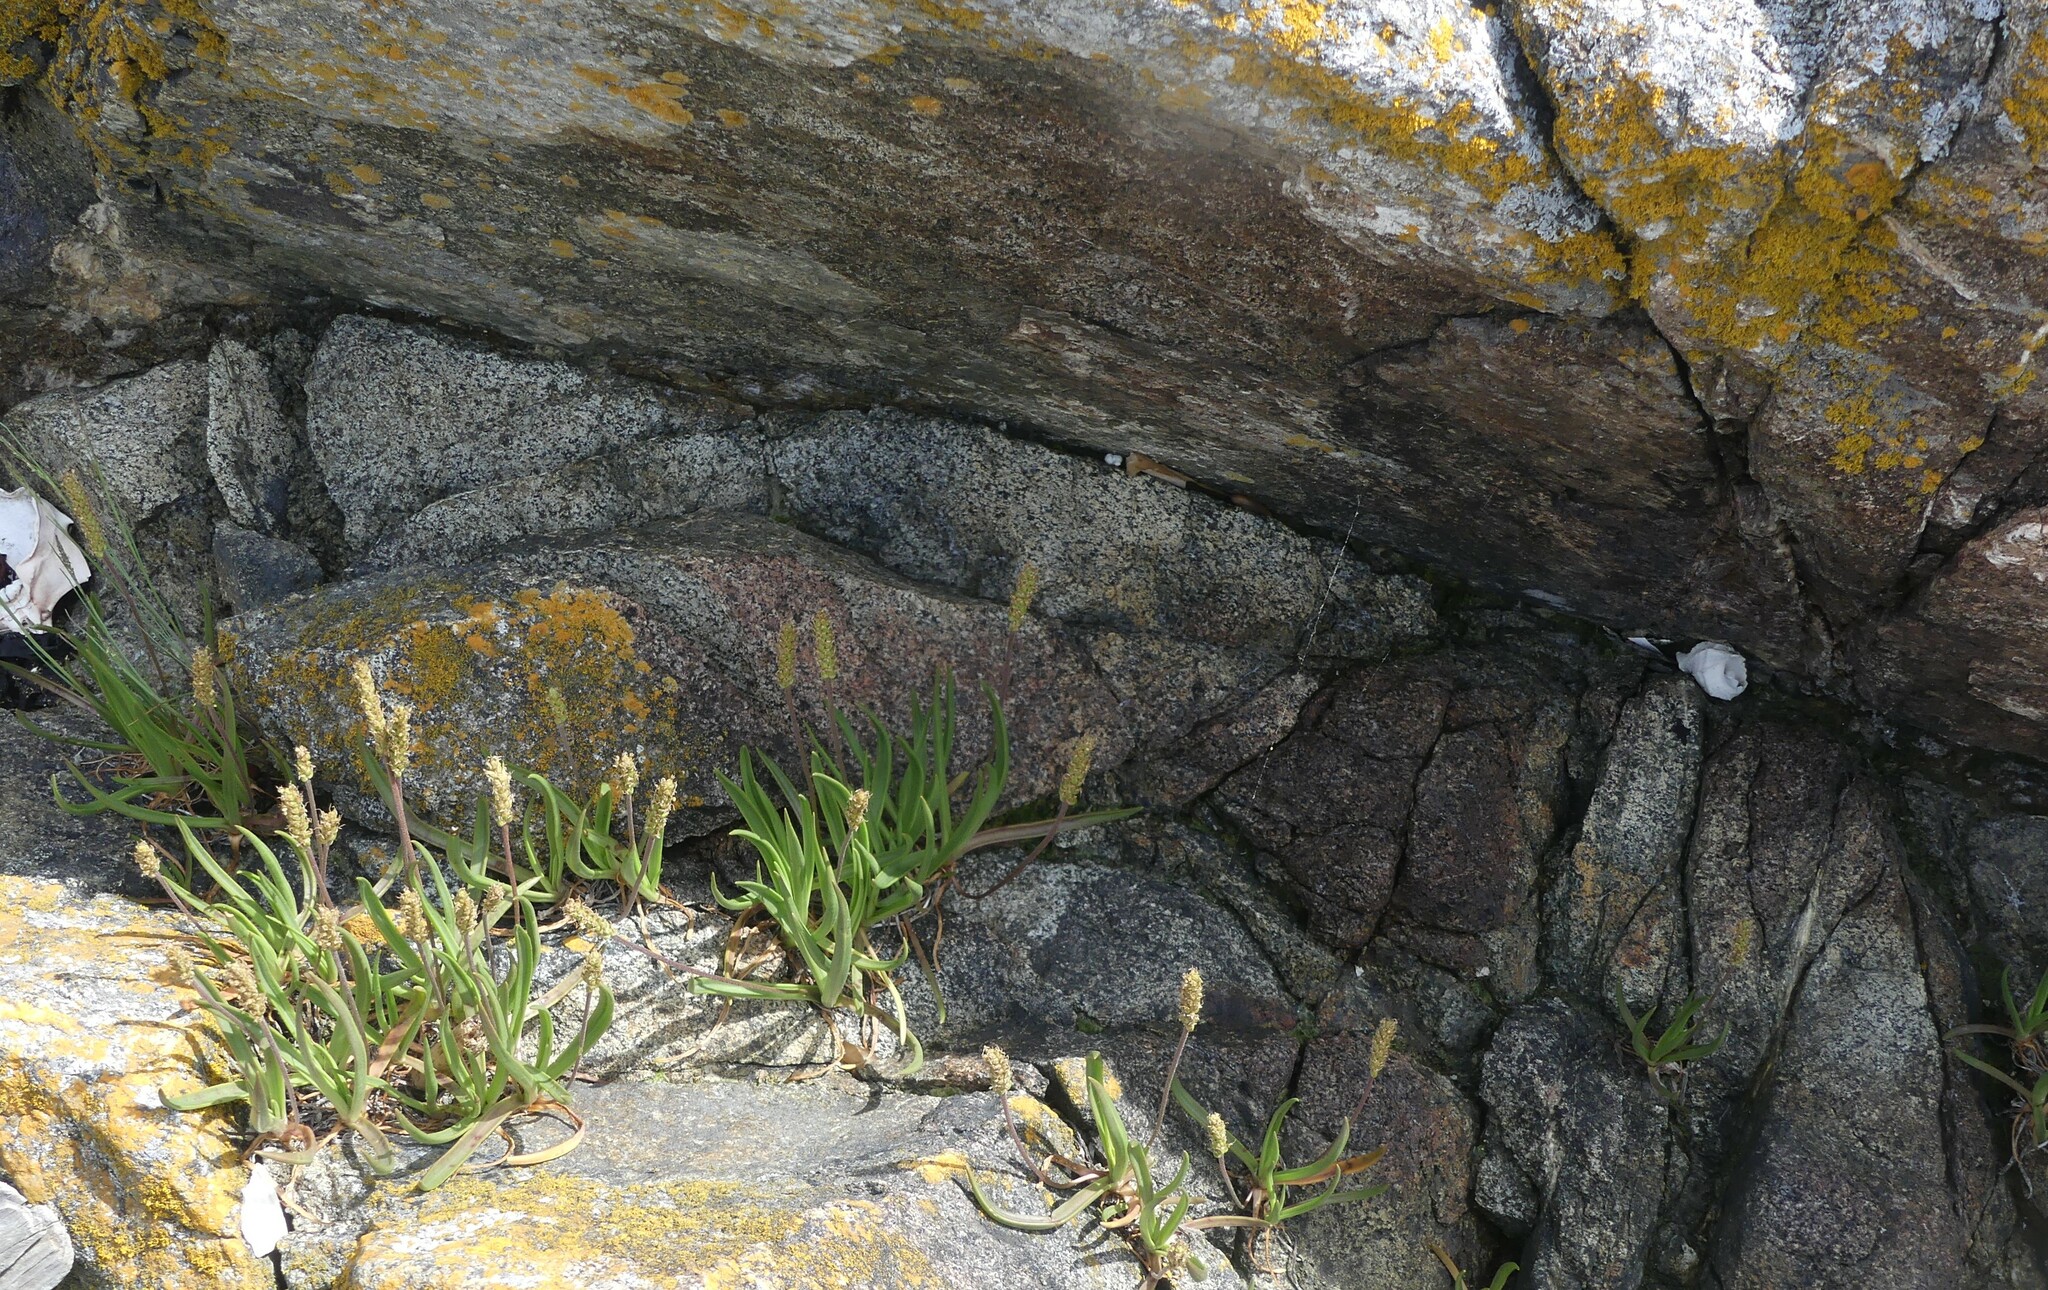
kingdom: Plantae
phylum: Tracheophyta
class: Magnoliopsida
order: Lamiales
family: Plantaginaceae
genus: Plantago
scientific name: Plantago maritima
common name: Sea plantain
